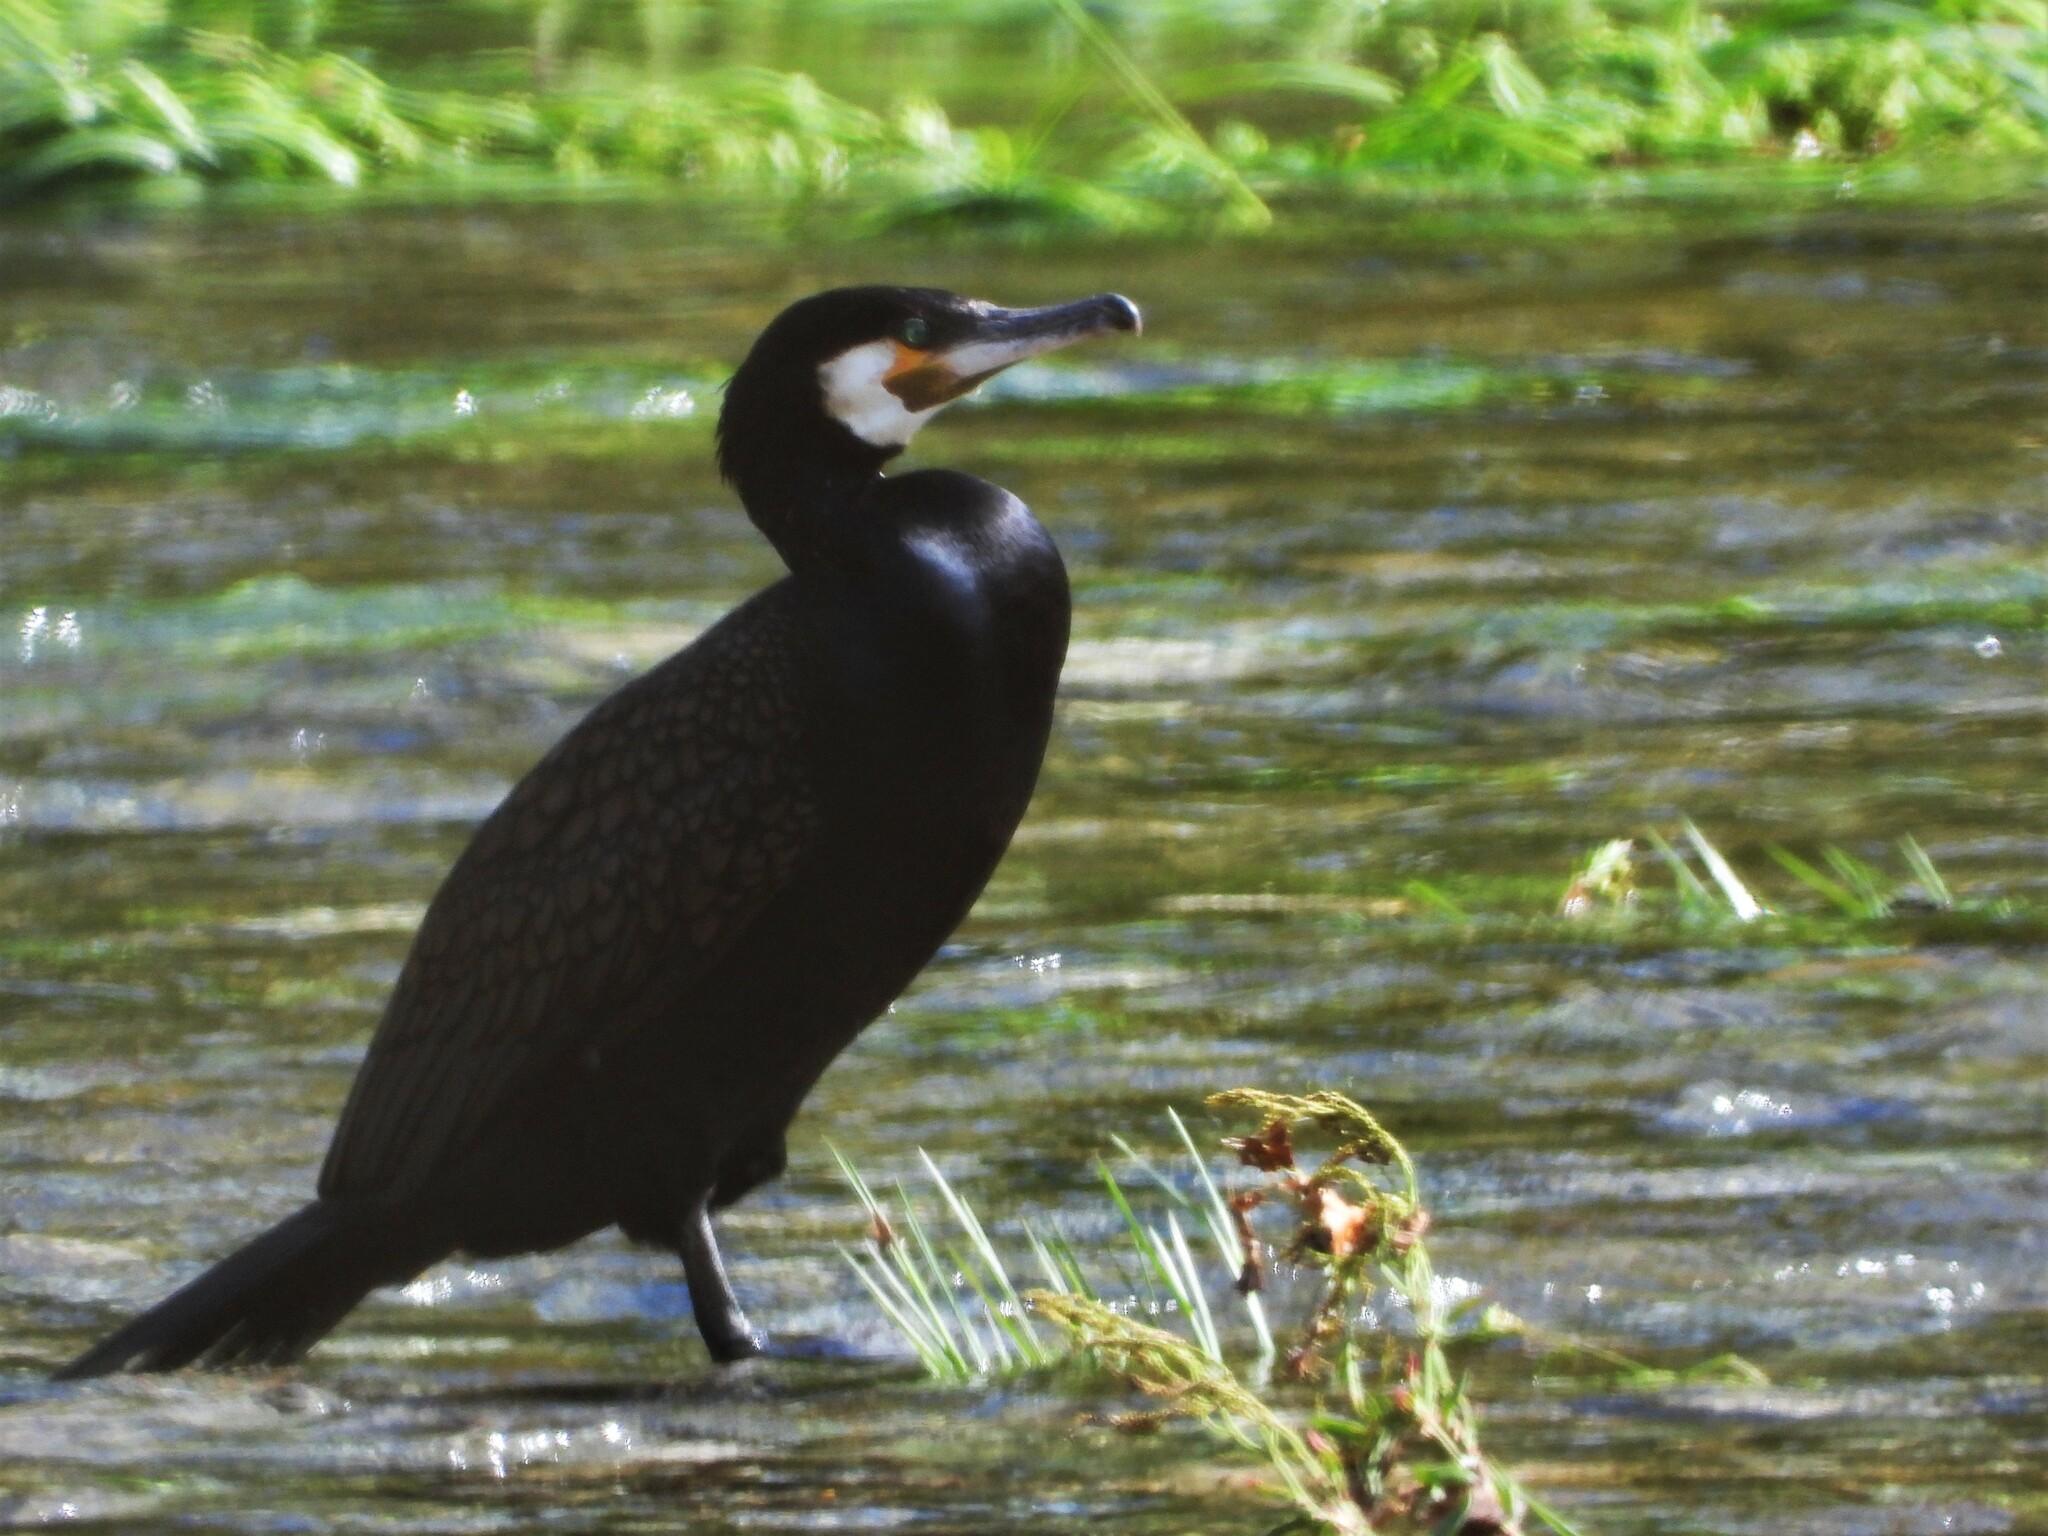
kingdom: Animalia
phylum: Chordata
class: Aves
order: Suliformes
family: Phalacrocoracidae
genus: Phalacrocorax
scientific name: Phalacrocorax carbo
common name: Great cormorant
